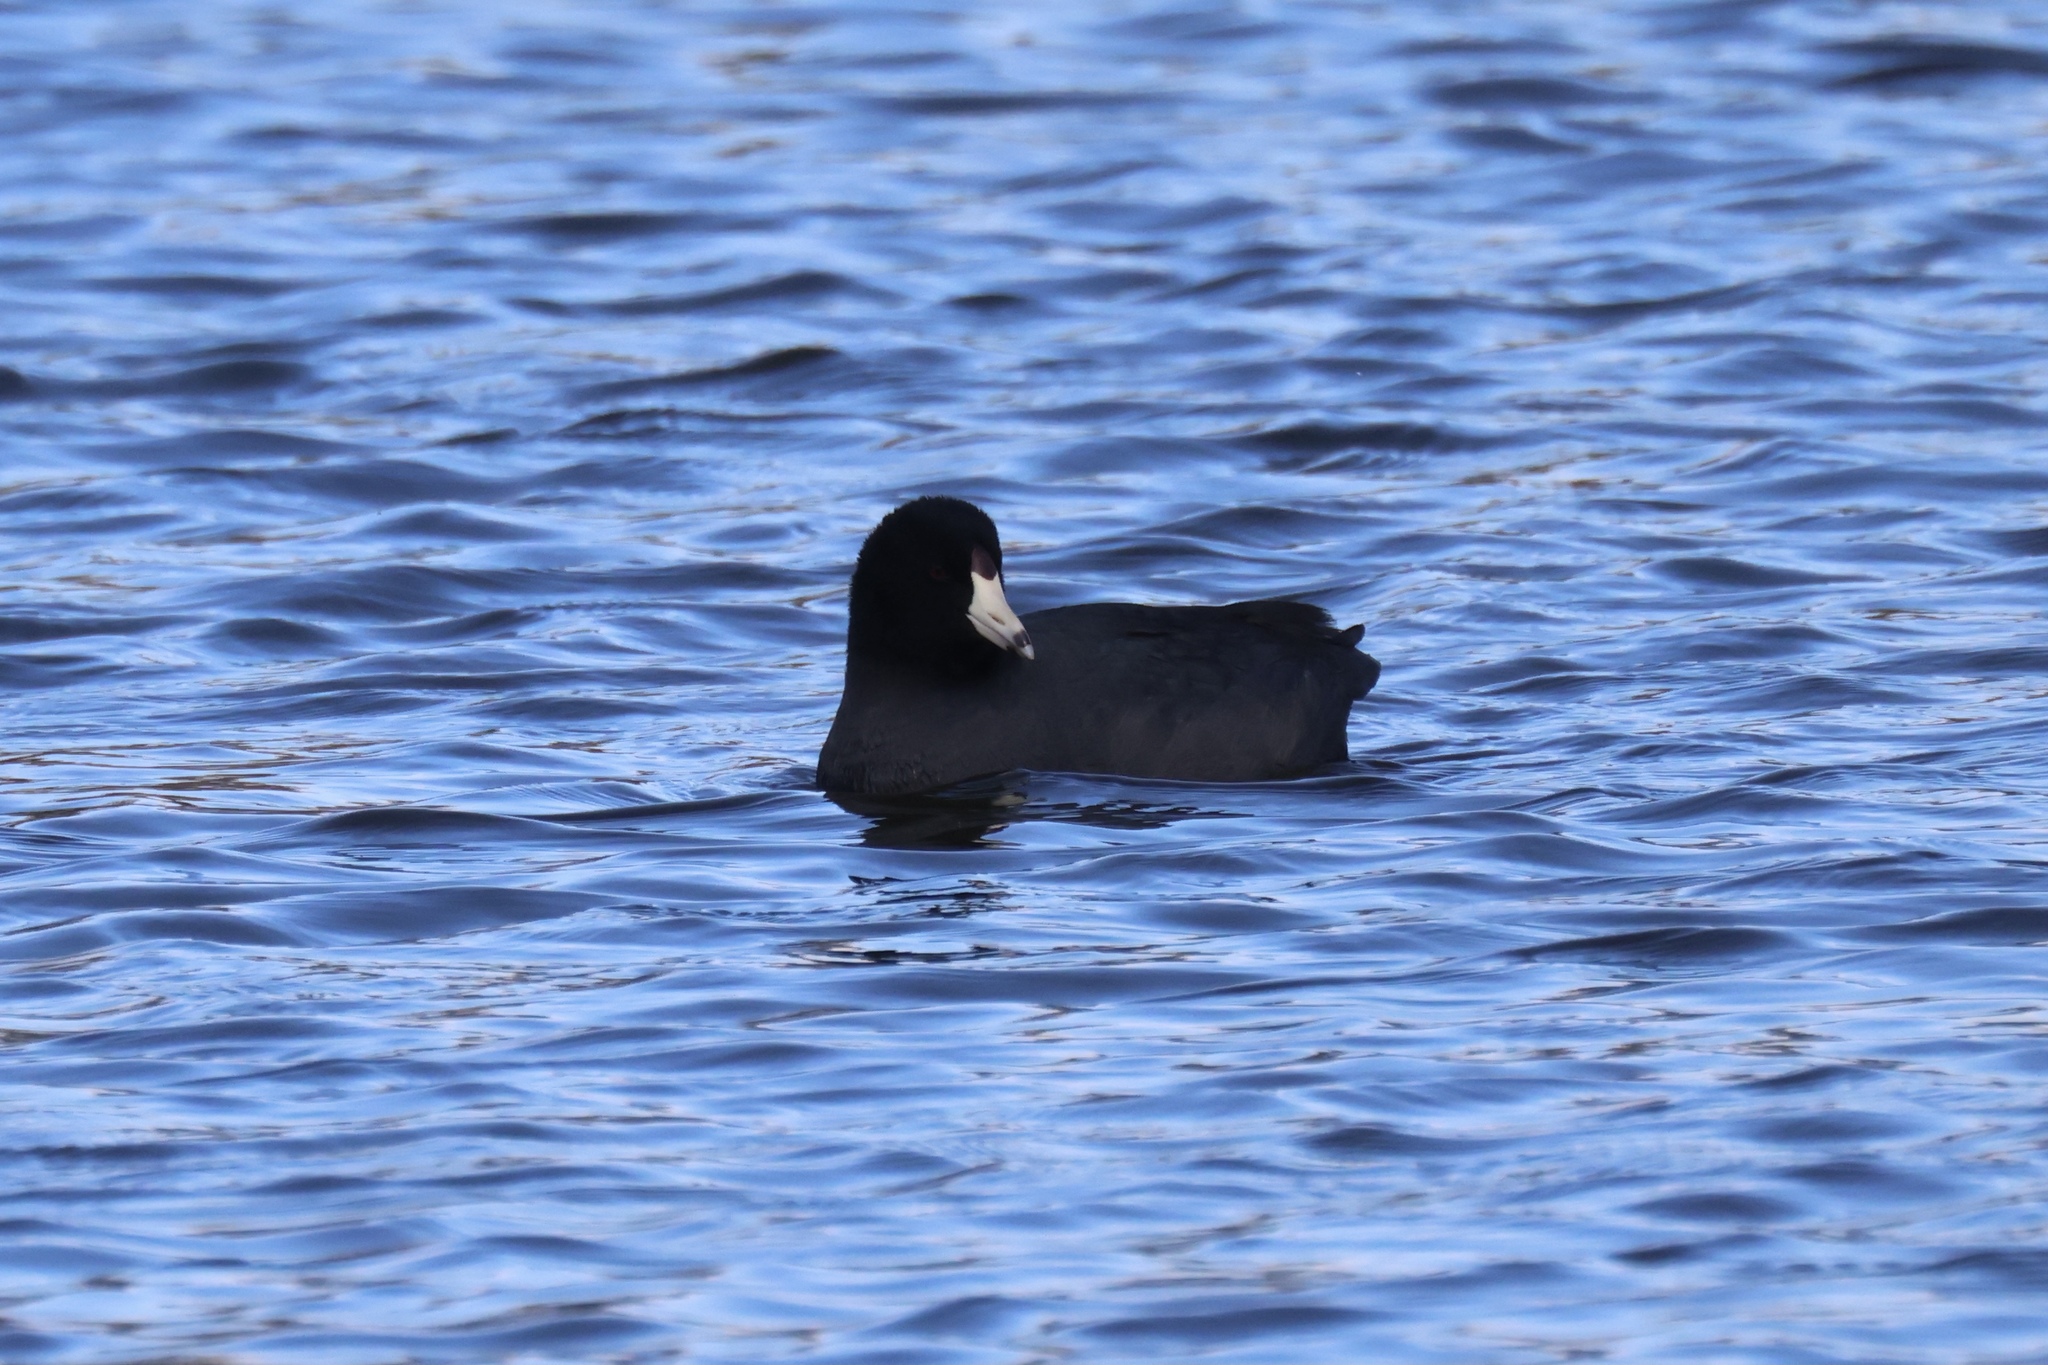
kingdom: Animalia
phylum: Chordata
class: Aves
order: Gruiformes
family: Rallidae
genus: Fulica
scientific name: Fulica americana
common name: American coot
